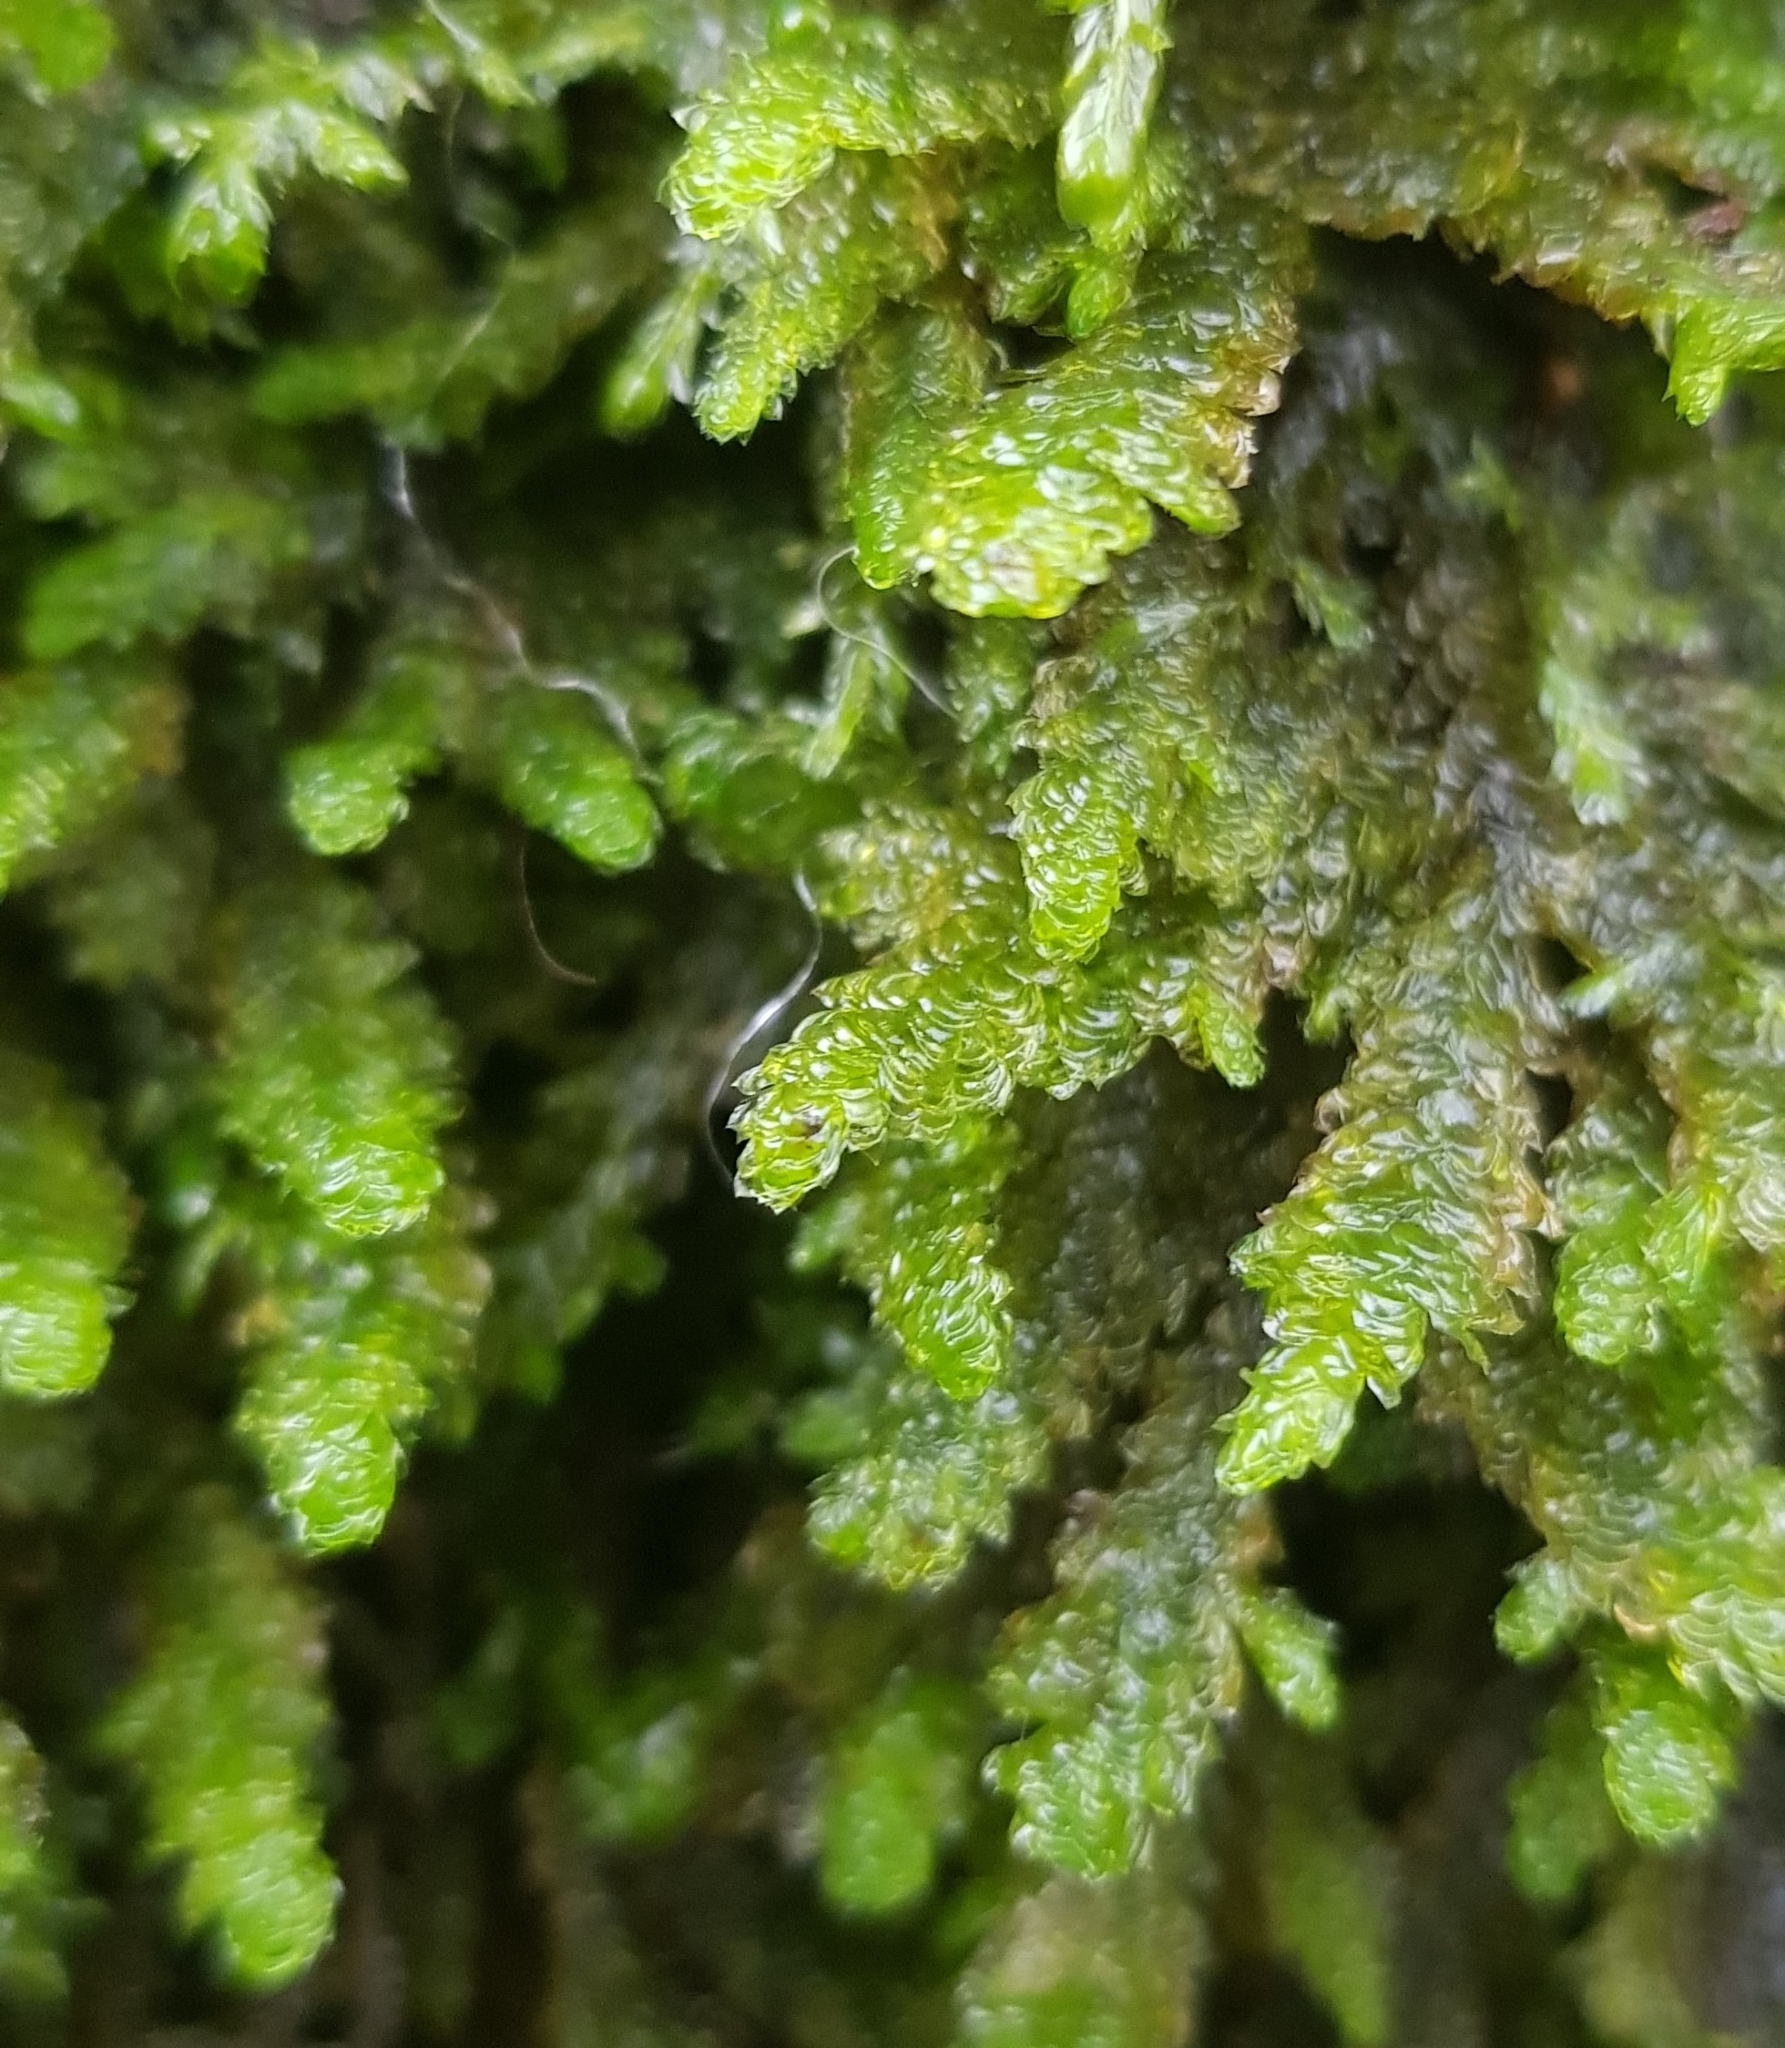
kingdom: Plantae
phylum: Bryophyta
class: Bryopsida
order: Hypnales
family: Neckeraceae
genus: Exsertotheca
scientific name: Exsertotheca crispa
